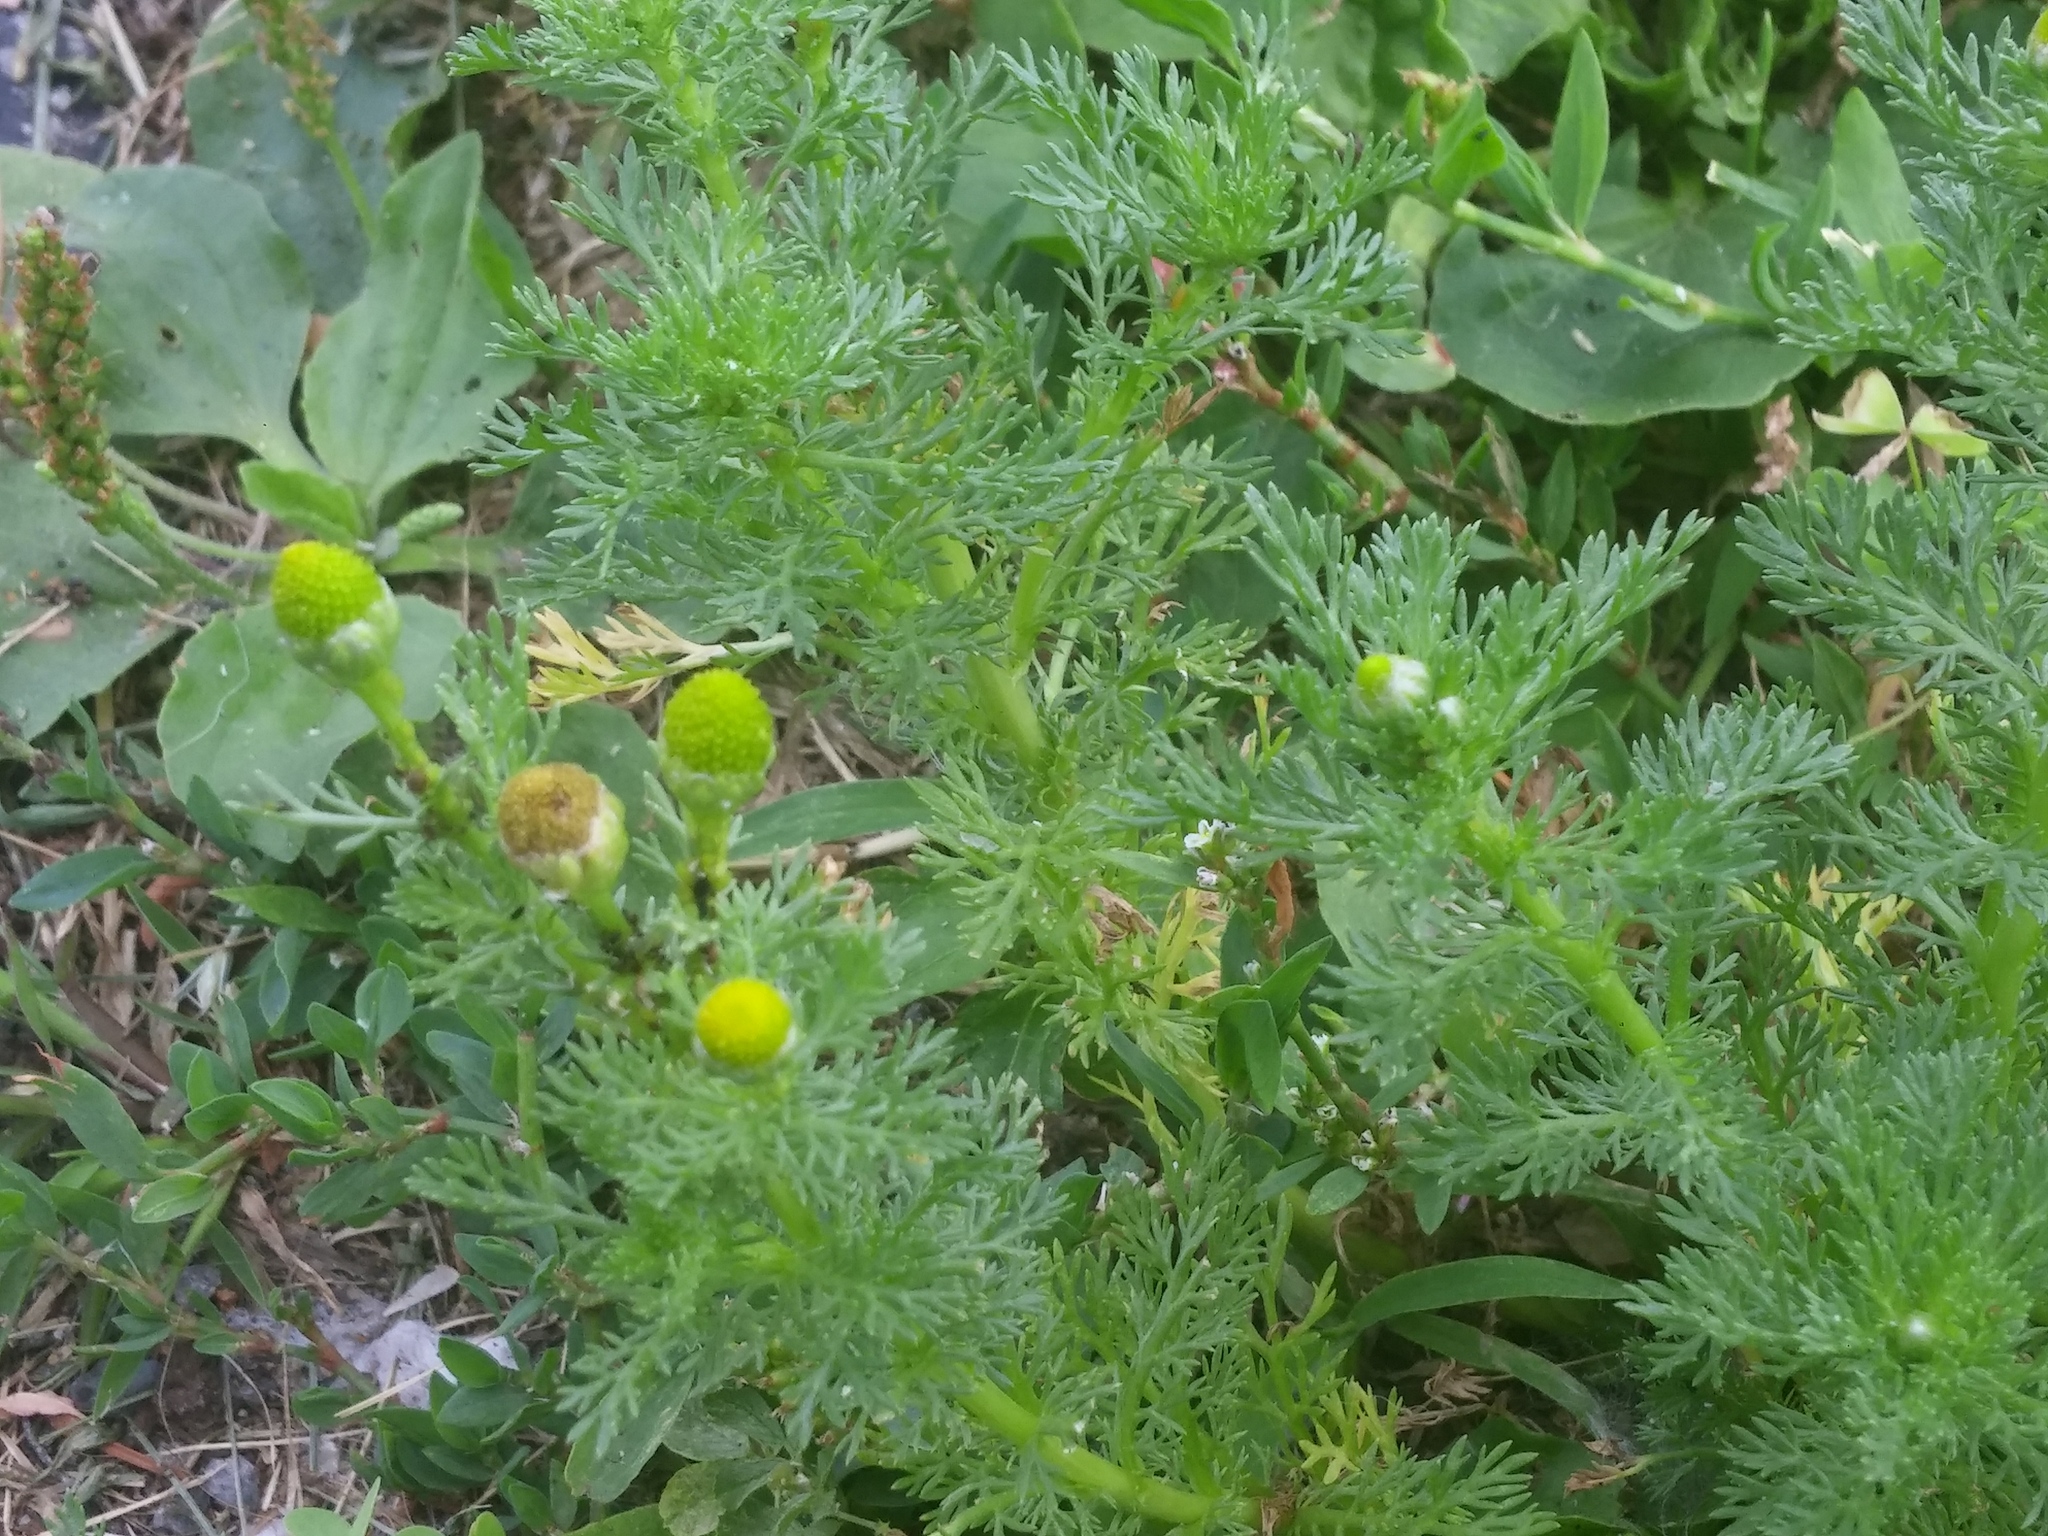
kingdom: Plantae
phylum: Tracheophyta
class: Magnoliopsida
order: Asterales
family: Asteraceae
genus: Matricaria
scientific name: Matricaria discoidea
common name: Disc mayweed
